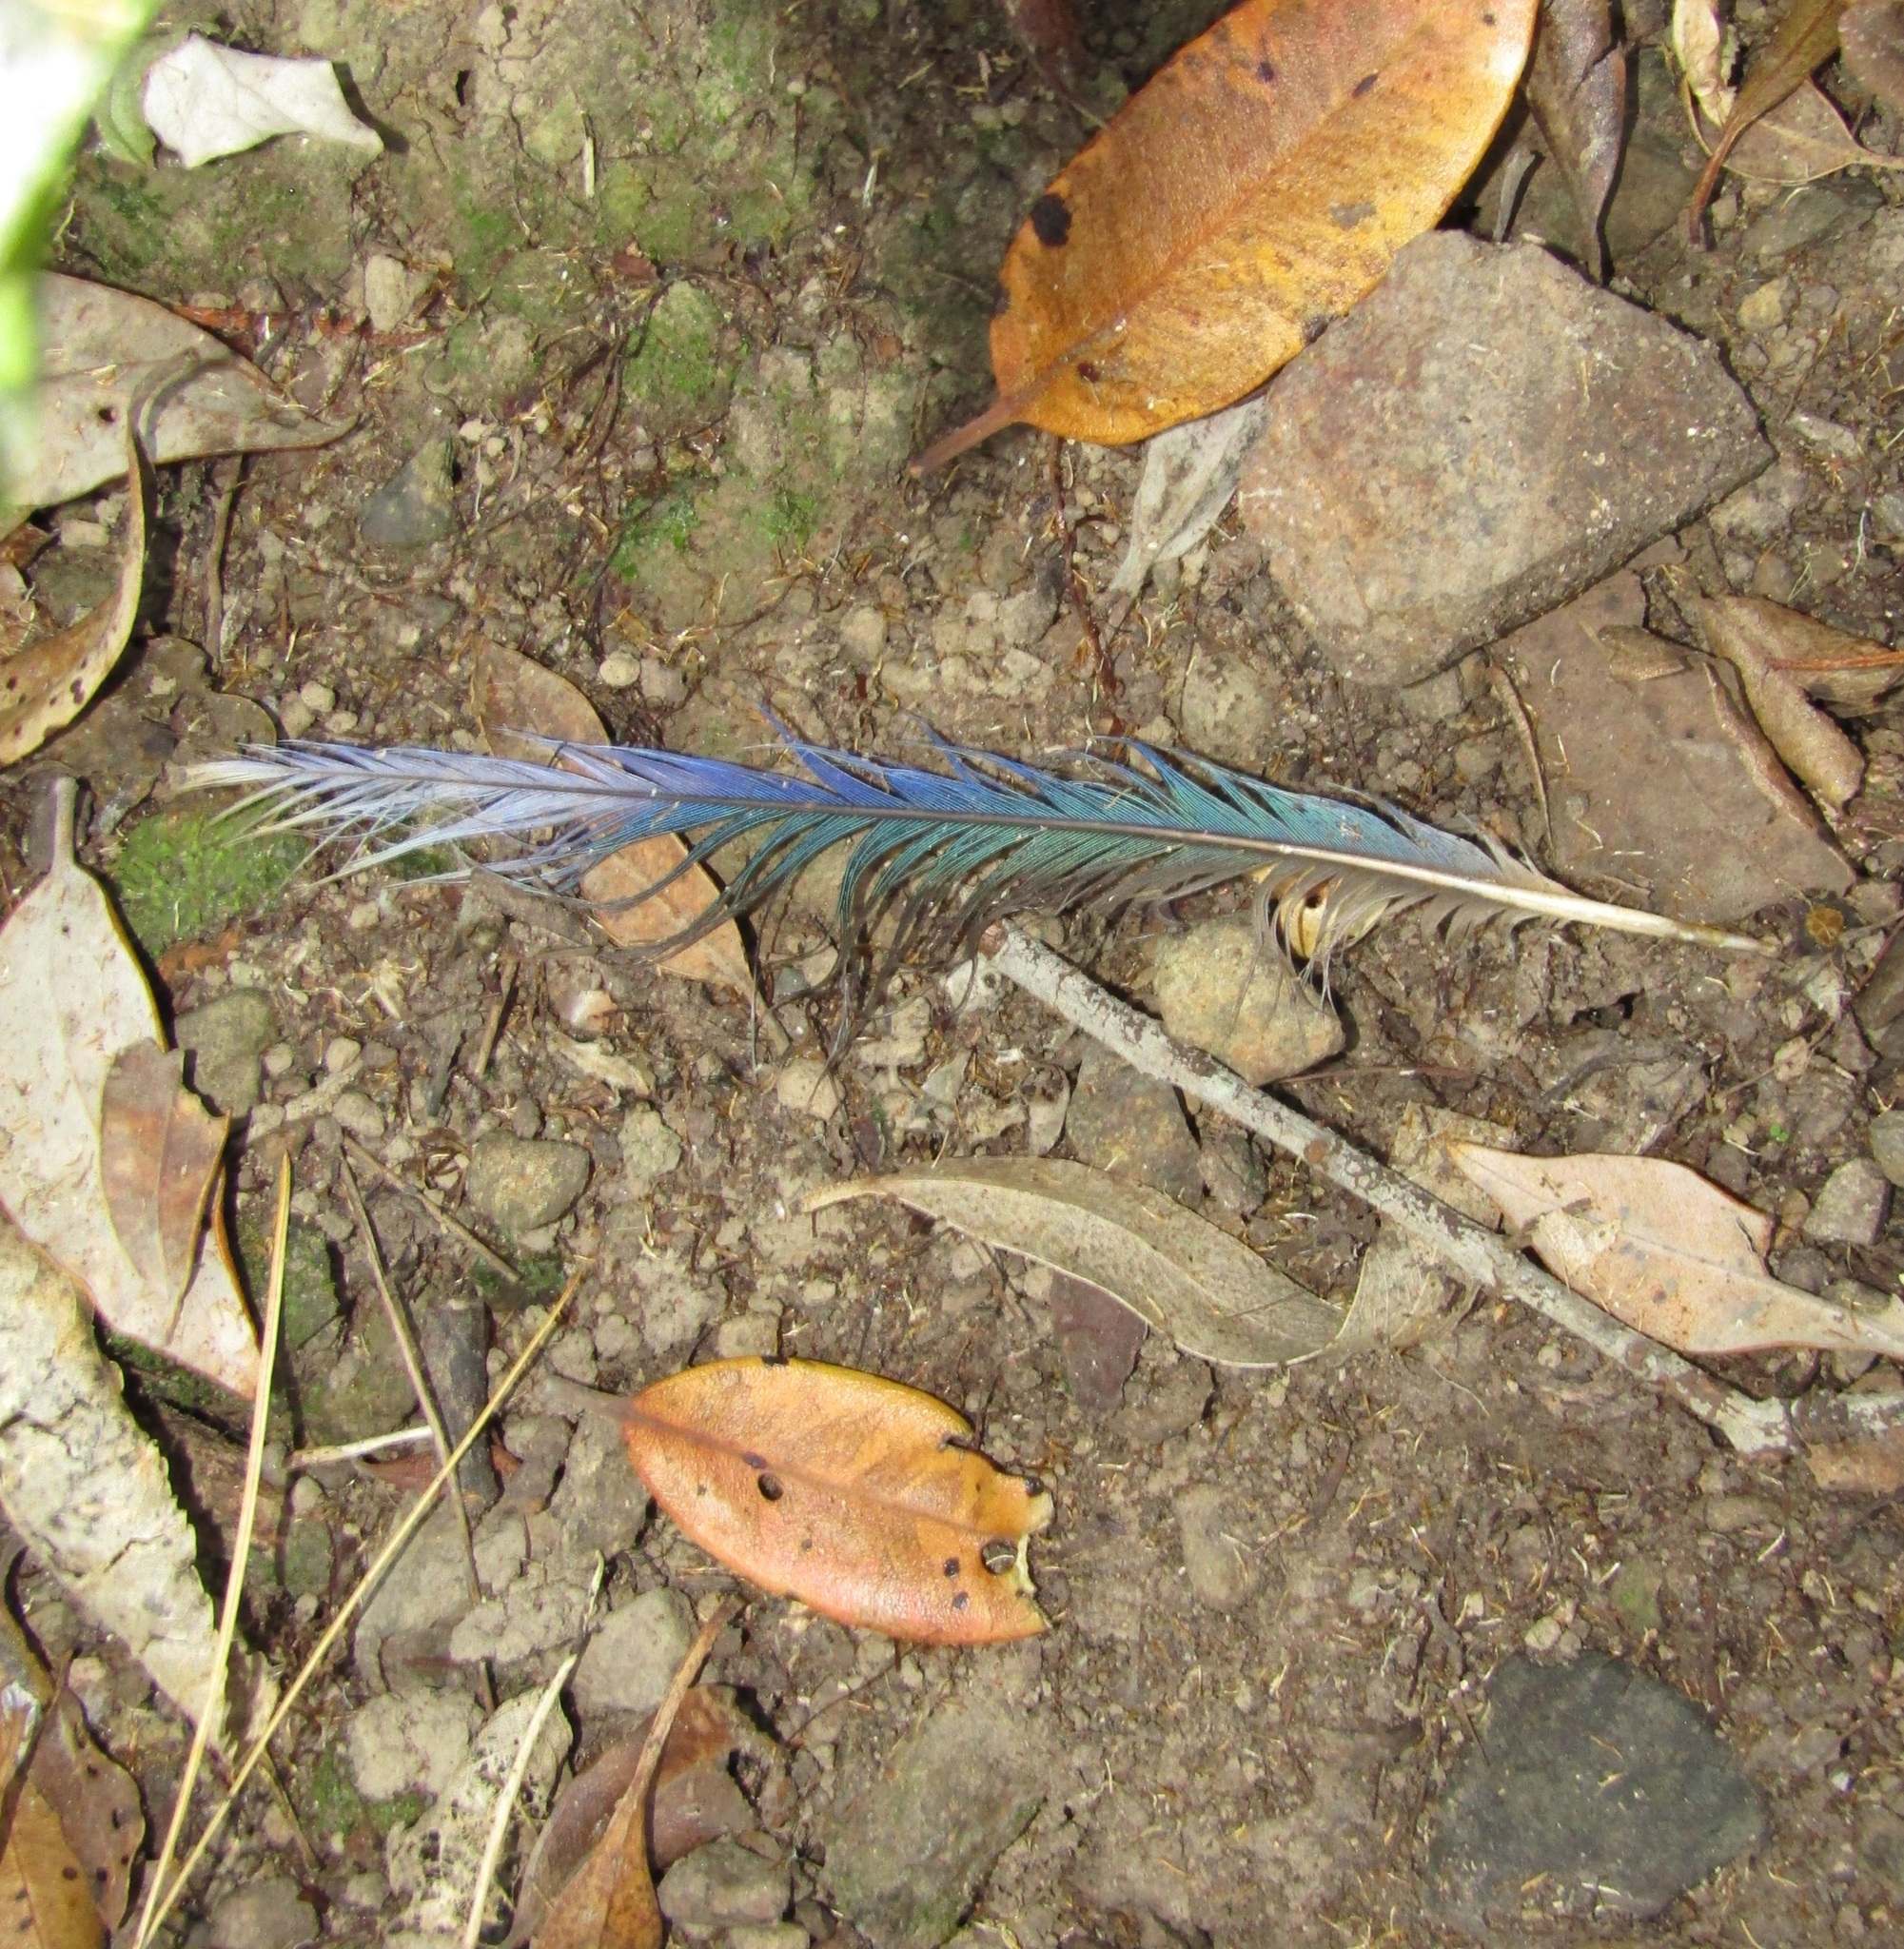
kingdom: Animalia
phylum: Chordata
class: Aves
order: Psittaciformes
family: Psittacidae
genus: Platycercus
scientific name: Platycercus eximius
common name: Eastern rosella
